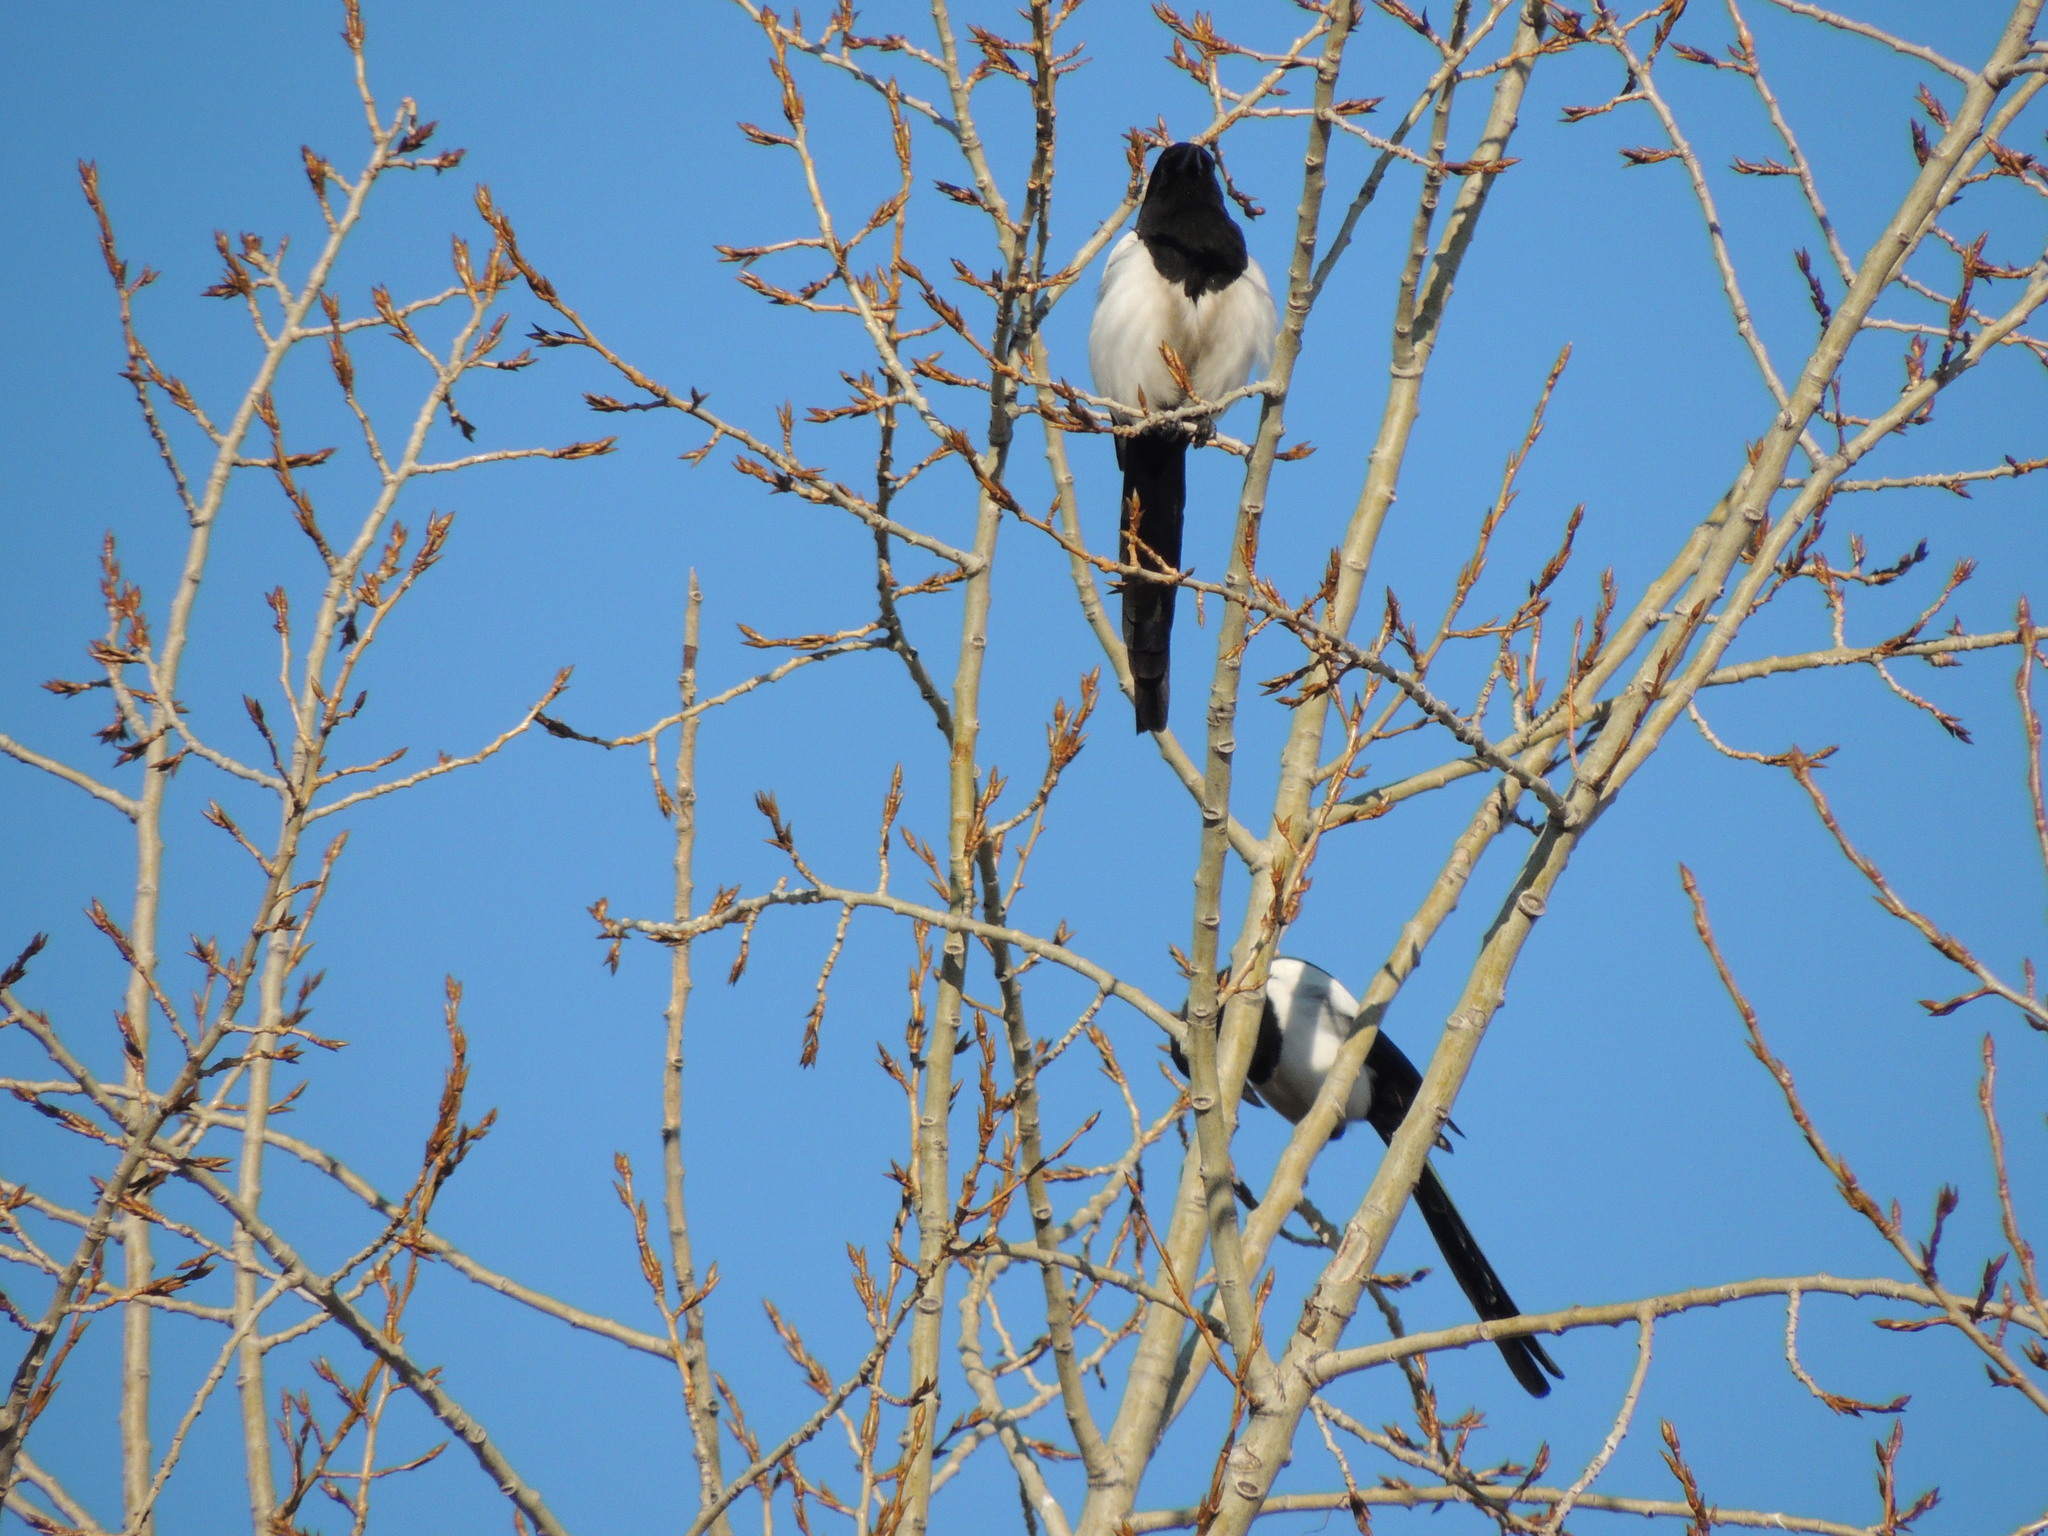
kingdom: Animalia
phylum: Chordata
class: Aves
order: Passeriformes
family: Corvidae
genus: Pica
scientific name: Pica pica
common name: Eurasian magpie
